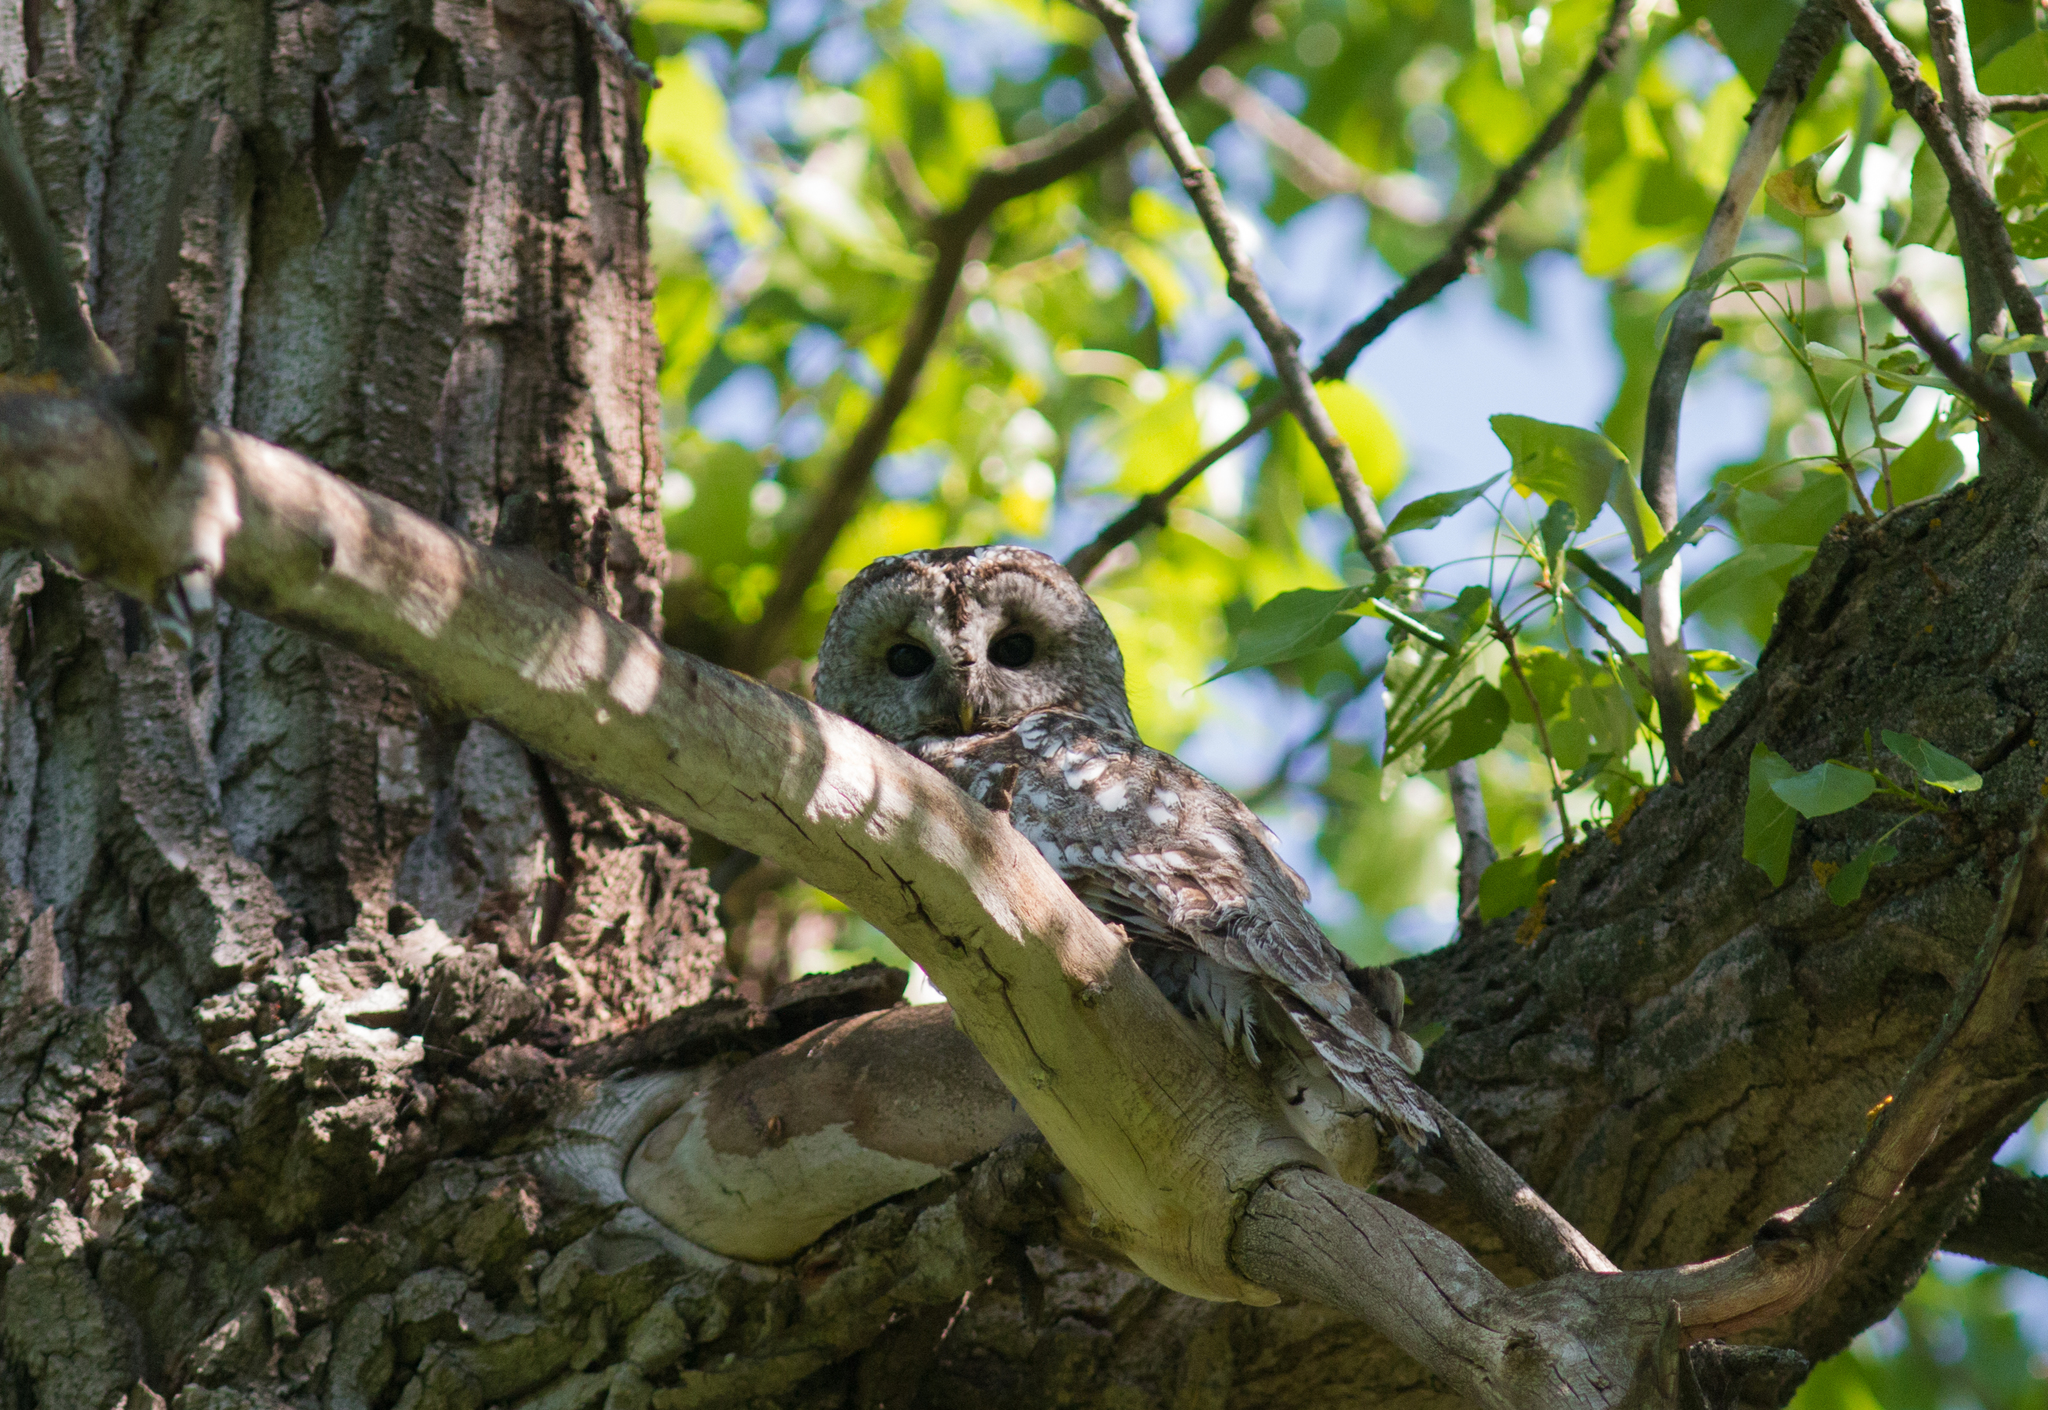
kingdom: Animalia
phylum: Chordata
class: Aves
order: Strigiformes
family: Strigidae
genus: Strix
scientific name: Strix aluco
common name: Tawny owl
